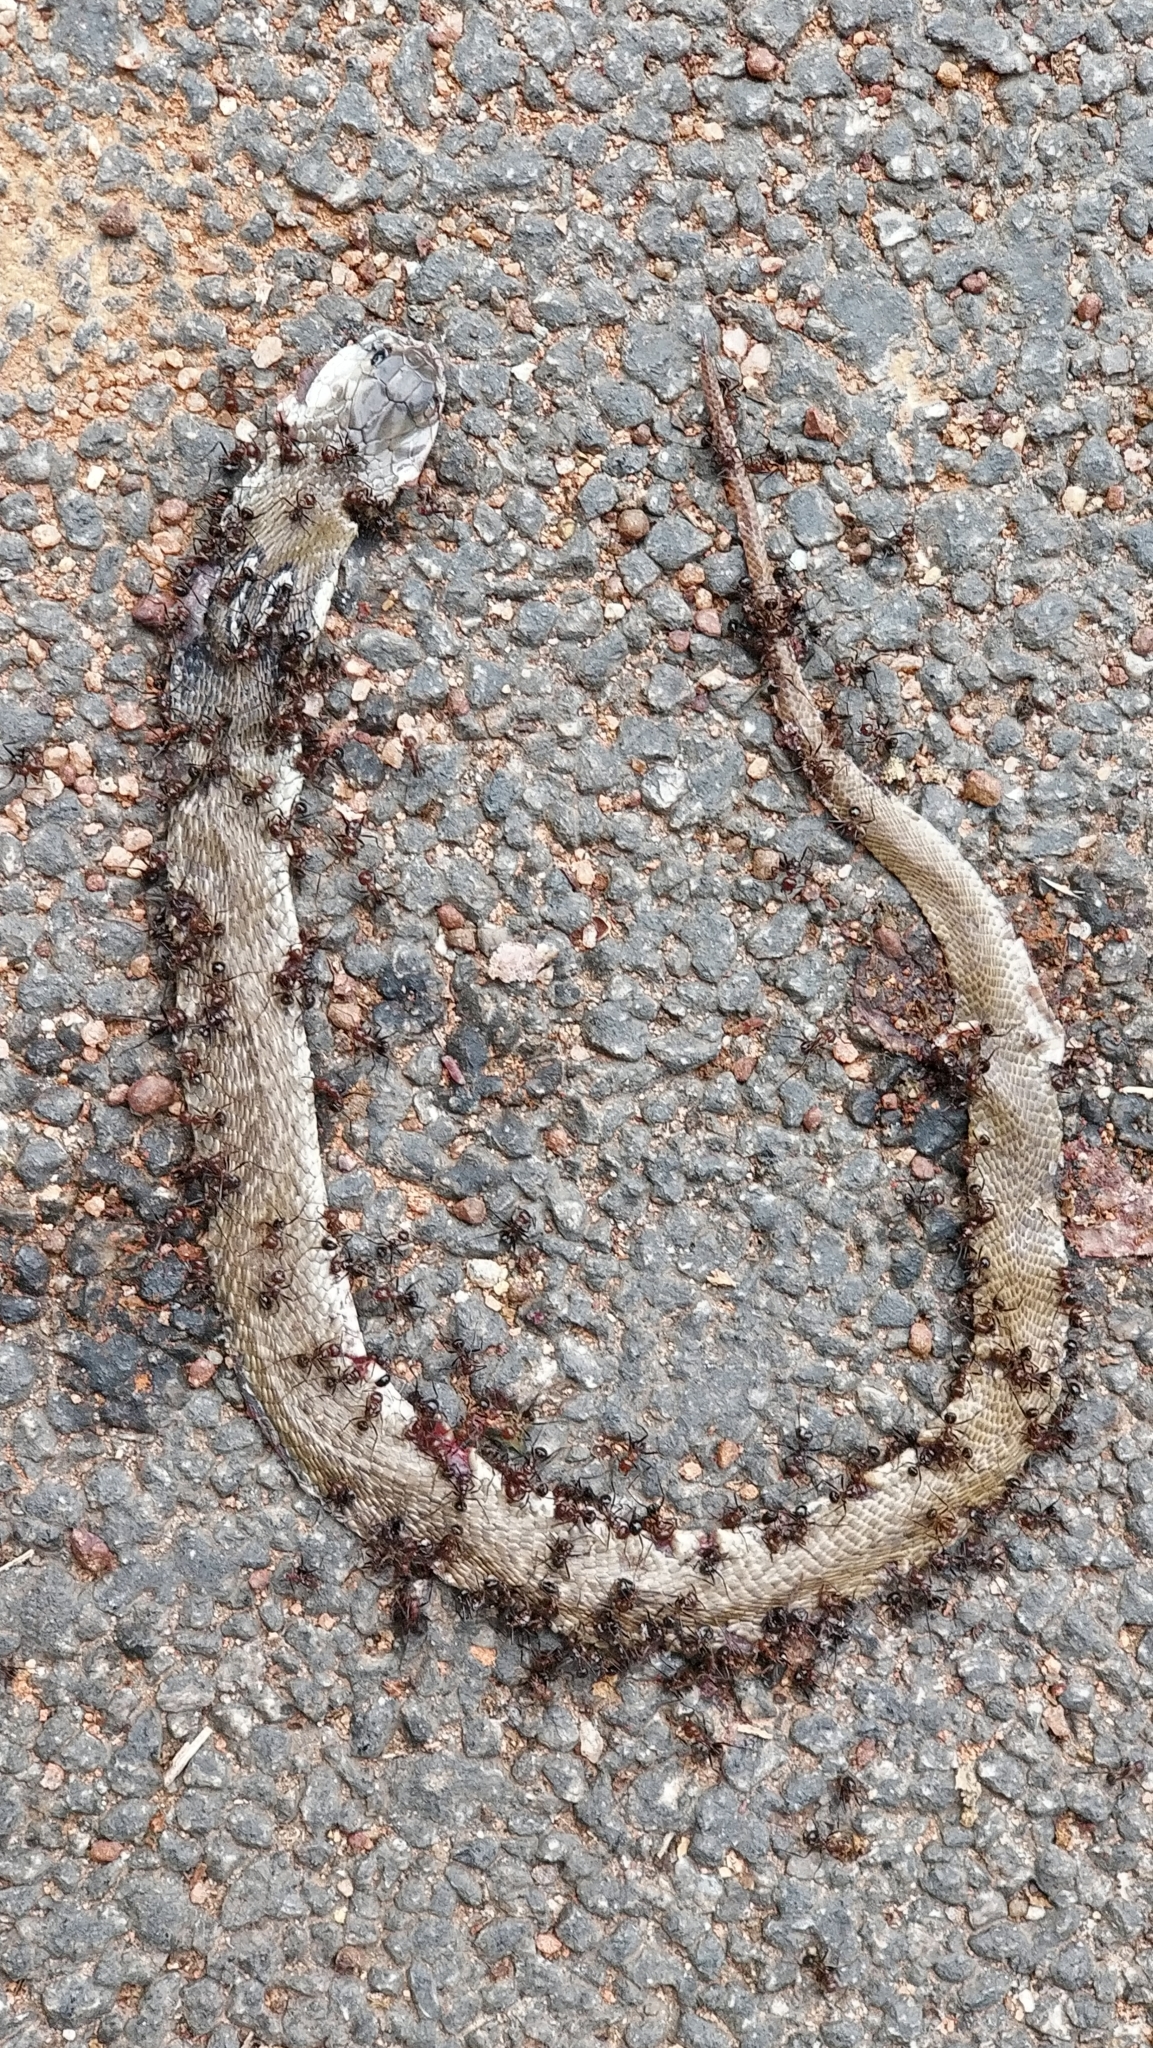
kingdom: Animalia
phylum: Chordata
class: Squamata
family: Elapidae
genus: Naja
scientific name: Naja naja
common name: Indian cobra
